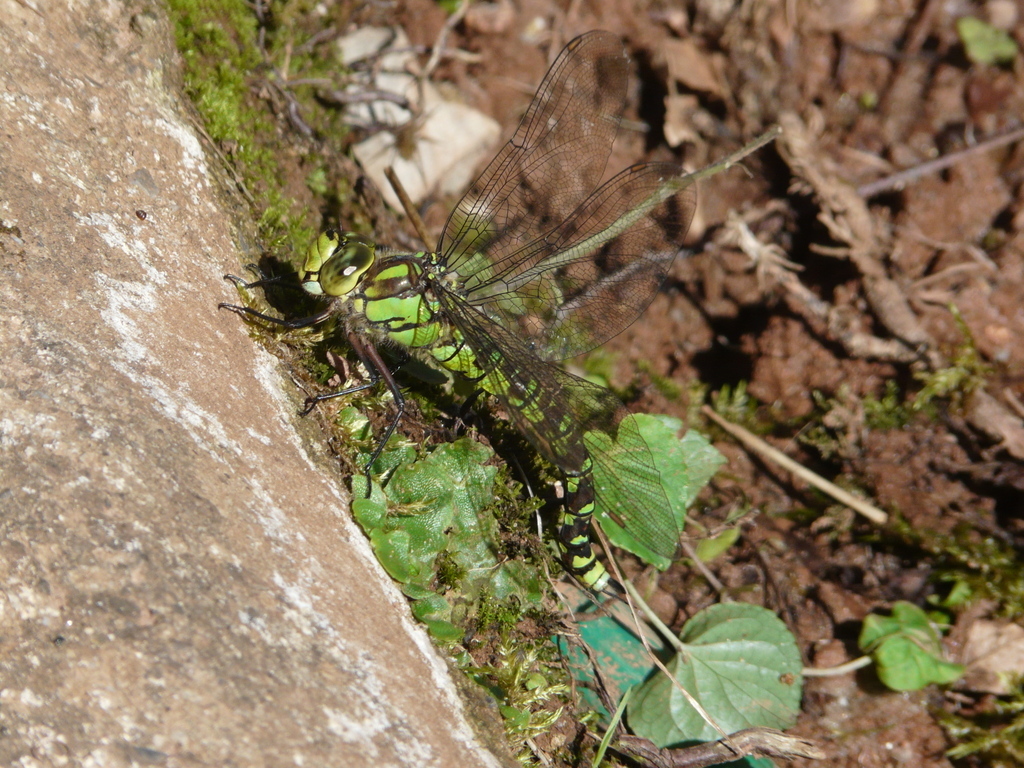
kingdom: Animalia
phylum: Arthropoda
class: Insecta
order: Odonata
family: Aeshnidae
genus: Aeshna
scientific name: Aeshna cyanea
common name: Southern hawker
